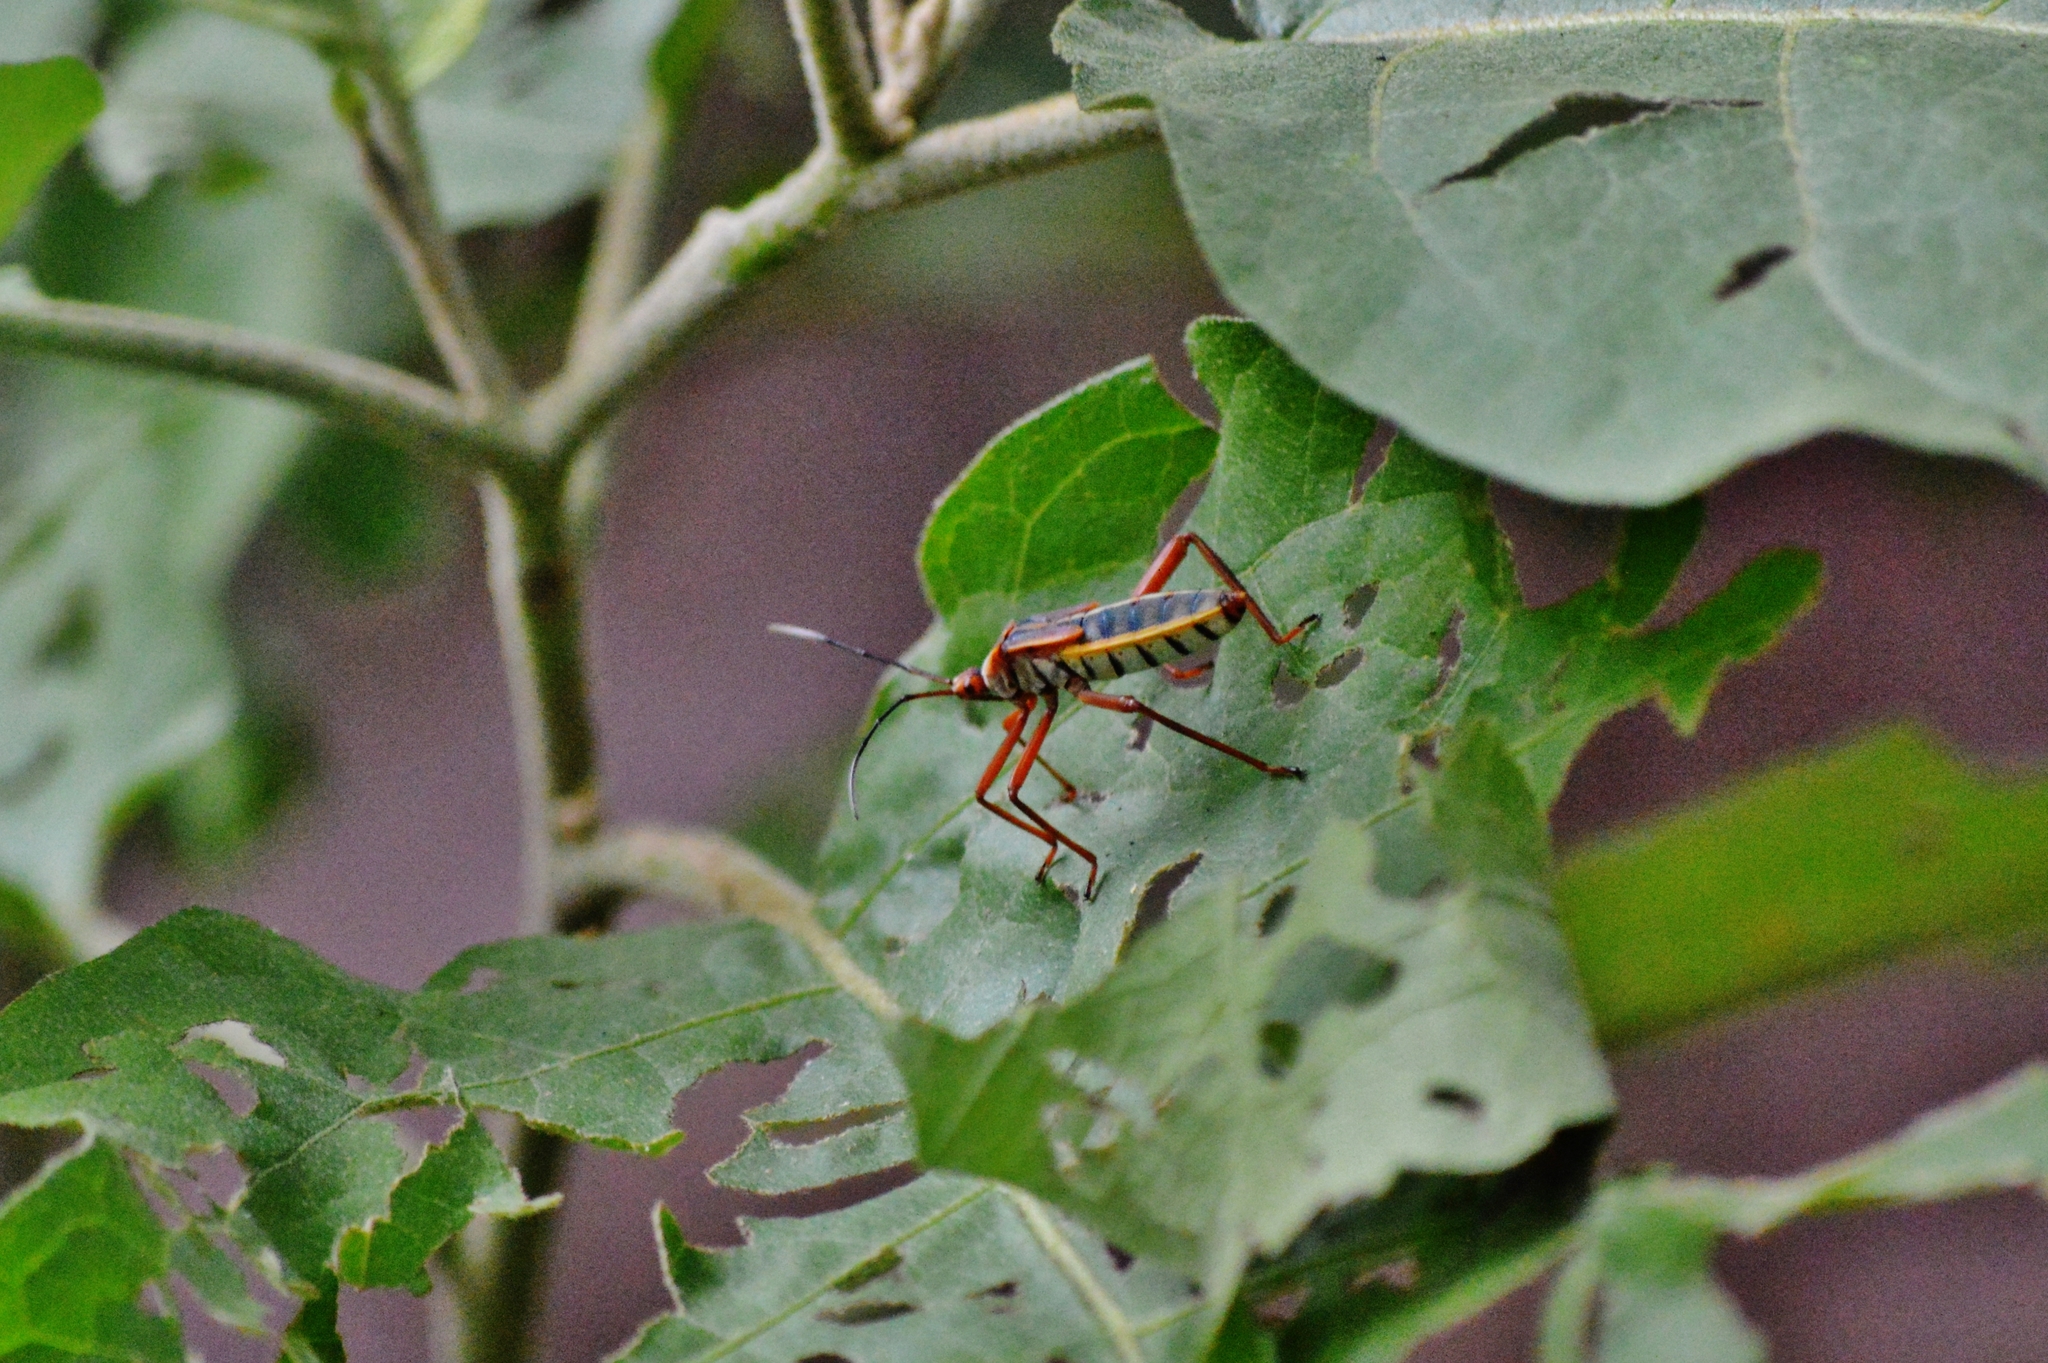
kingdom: Animalia
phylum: Arthropoda
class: Insecta
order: Hemiptera
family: Coreidae
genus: Lucullia
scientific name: Lucullia flavovittata
